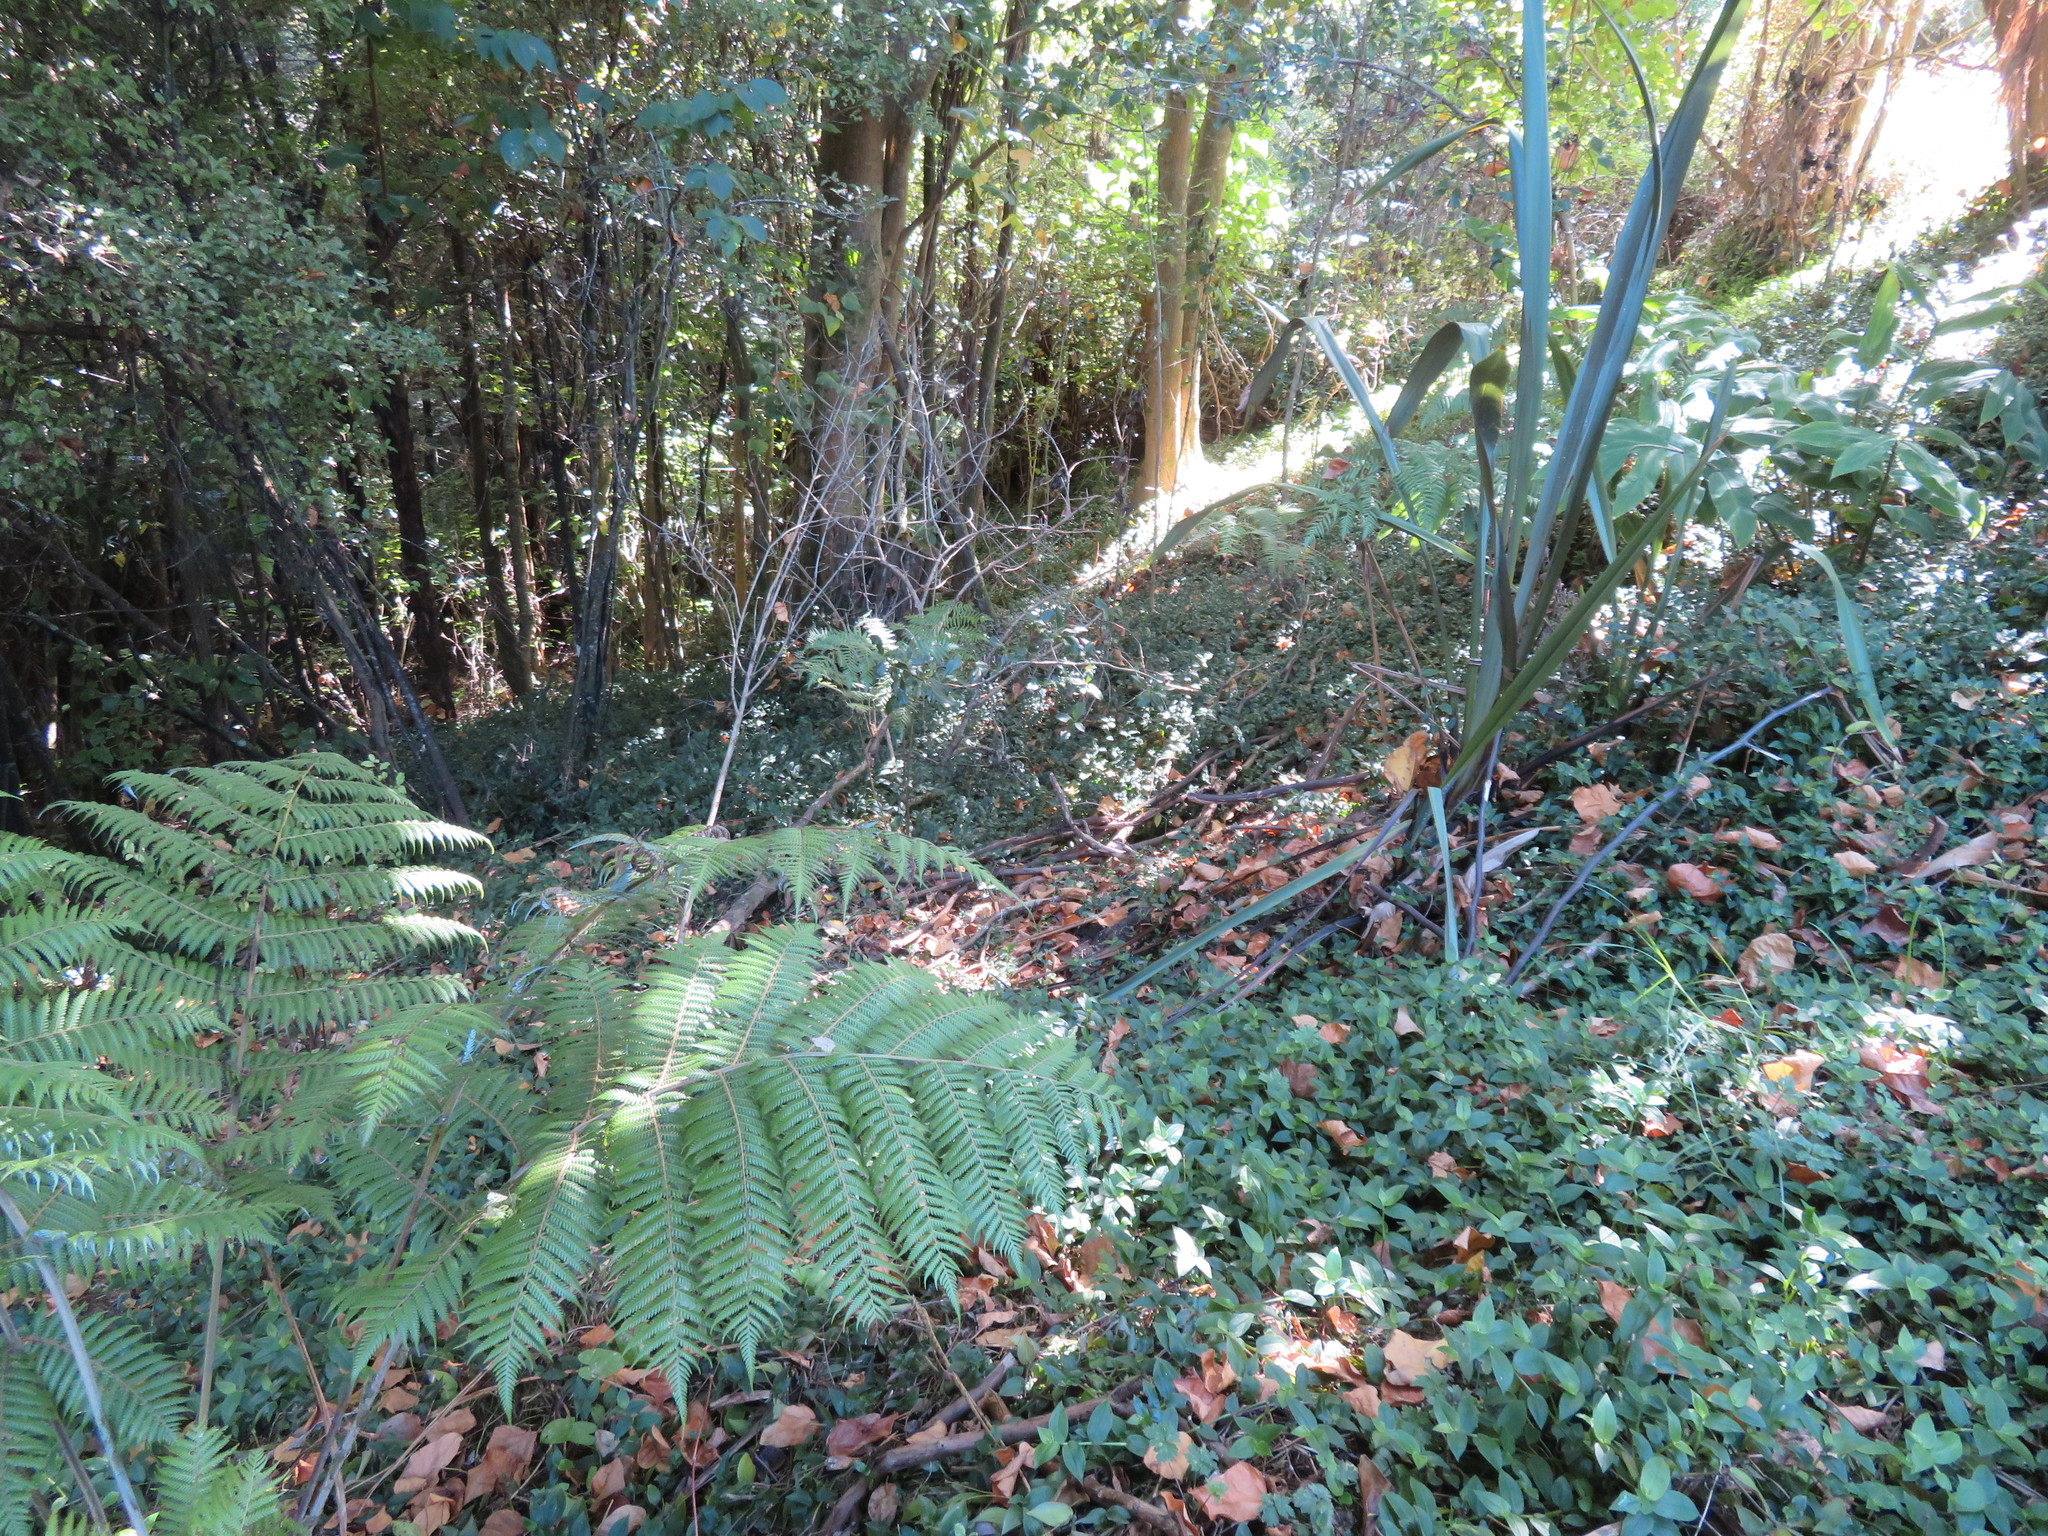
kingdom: Plantae
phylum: Tracheophyta
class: Liliopsida
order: Commelinales
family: Commelinaceae
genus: Tradescantia
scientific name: Tradescantia fluminensis
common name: Wandering-jew
